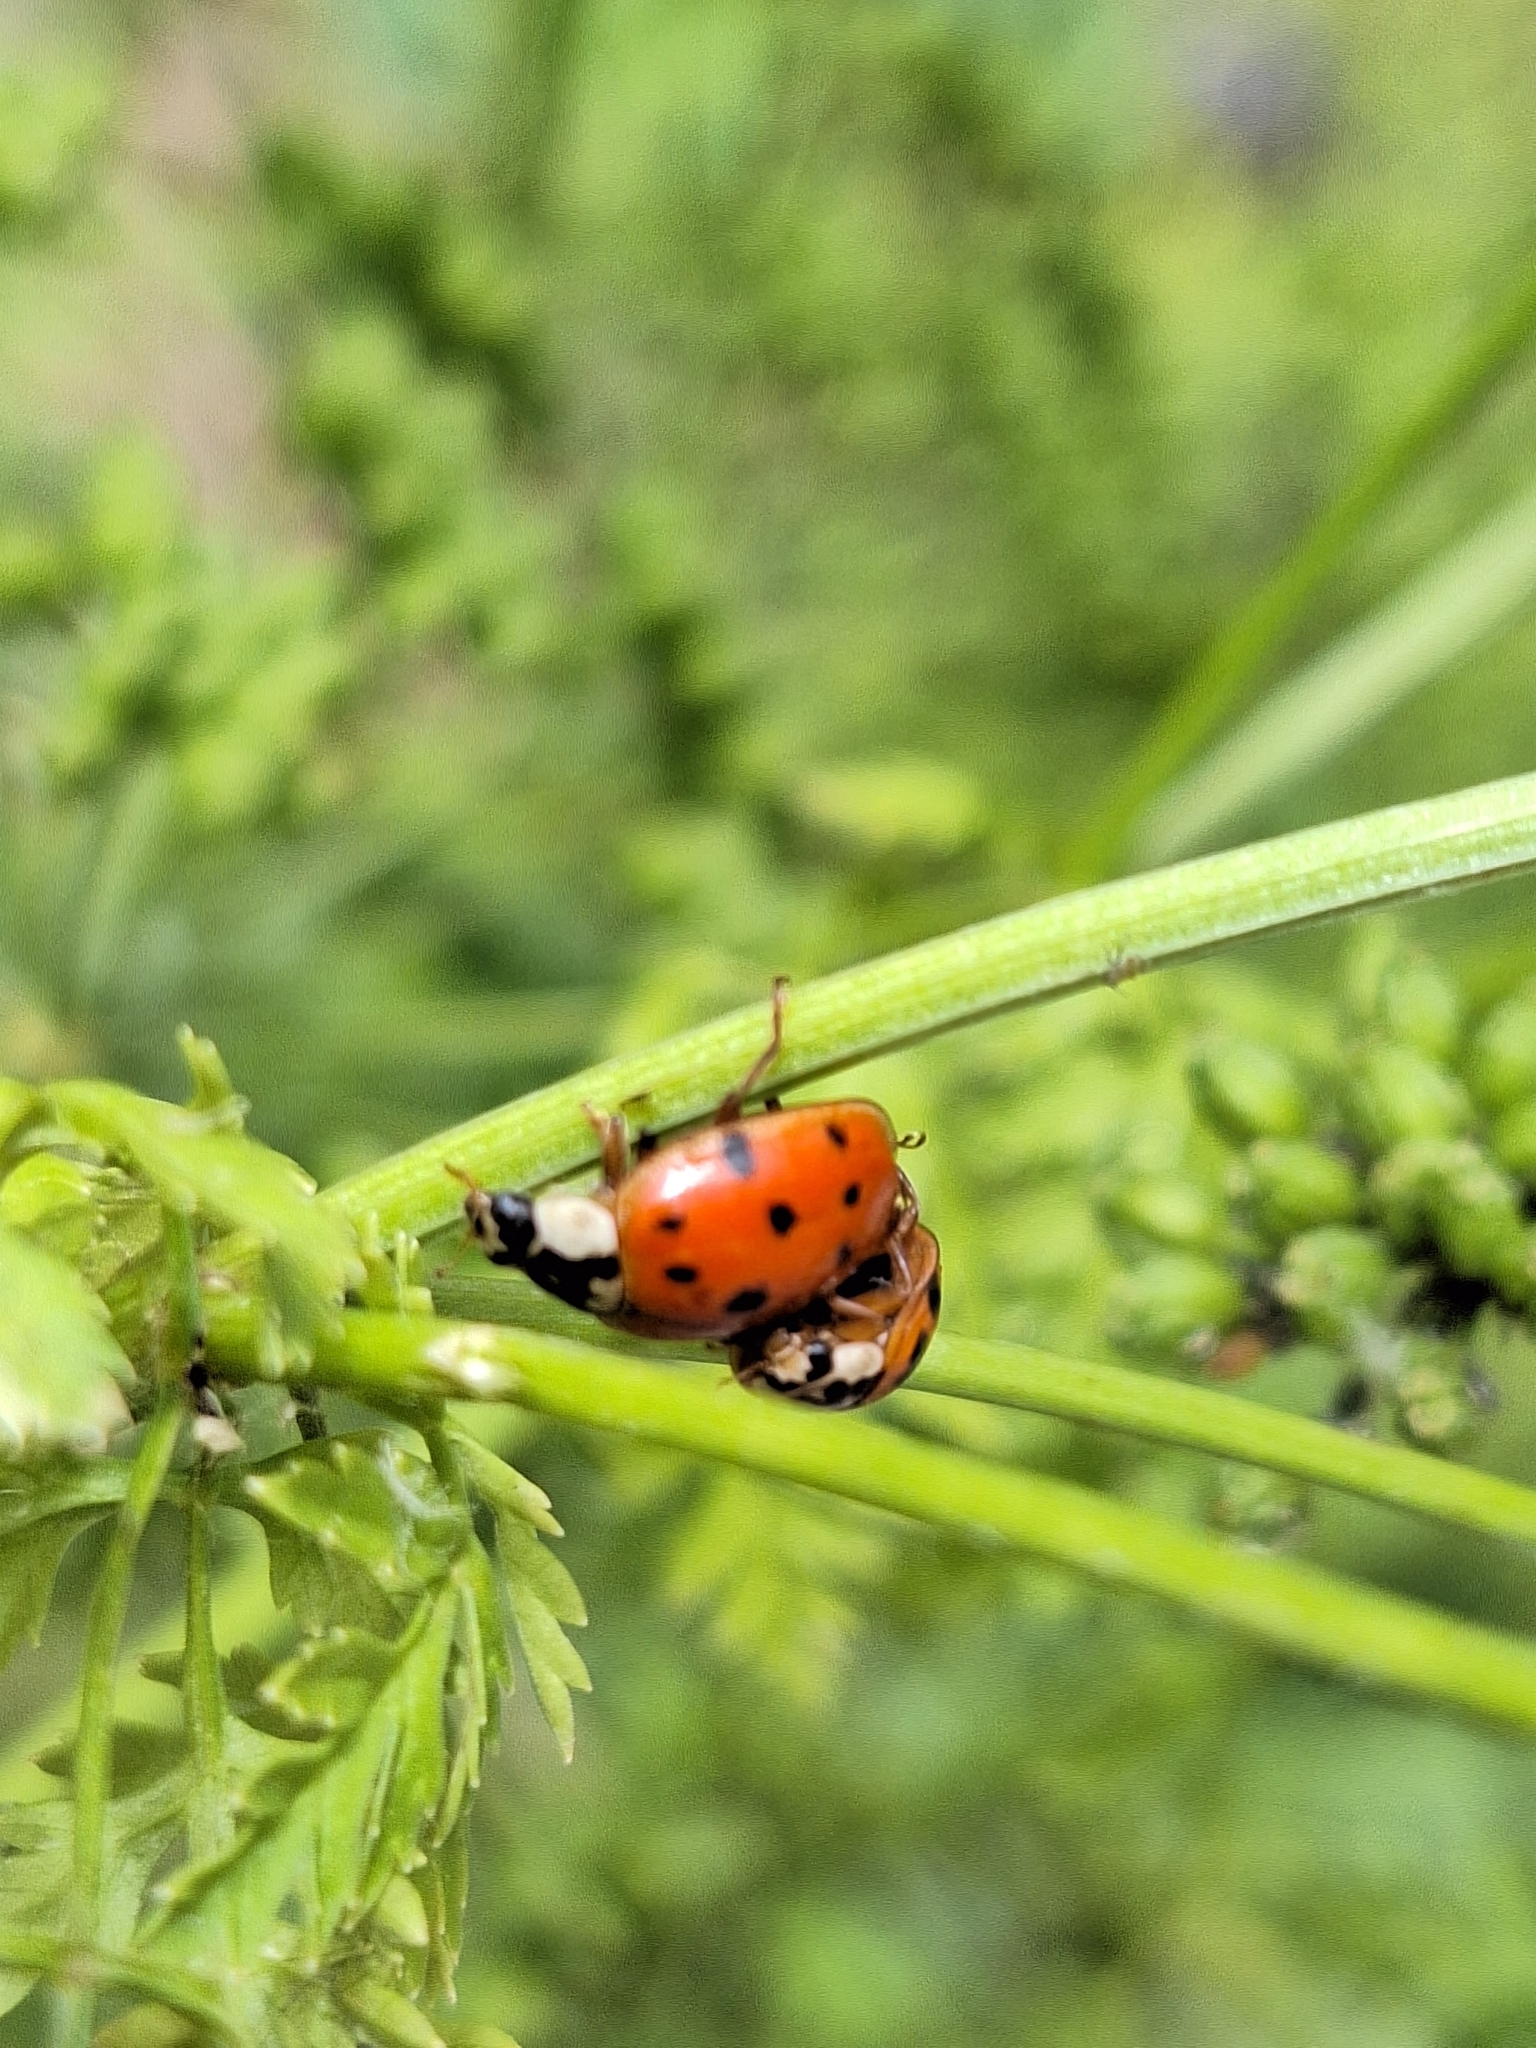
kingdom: Animalia
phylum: Arthropoda
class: Insecta
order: Coleoptera
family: Coccinellidae
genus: Harmonia
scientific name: Harmonia axyridis
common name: Harlequin ladybird
